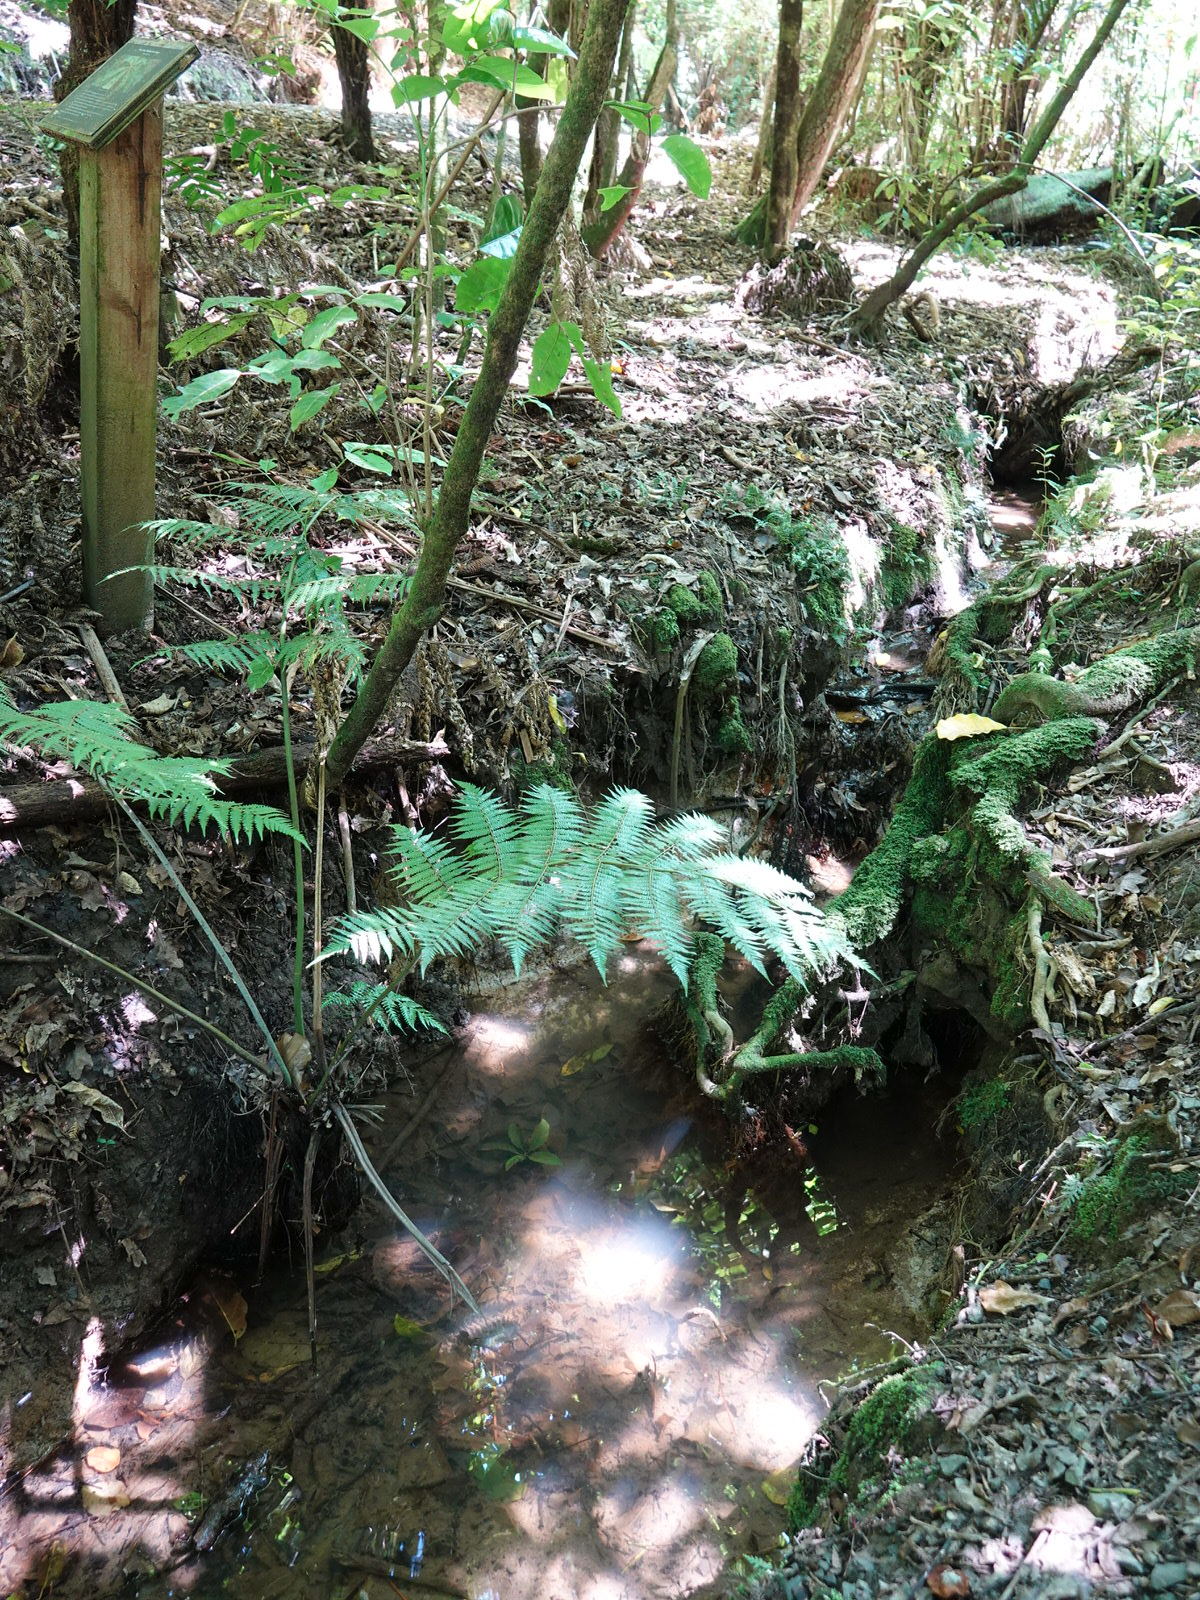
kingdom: Animalia
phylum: Chordata
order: Osmeriformes
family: Galaxiidae
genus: Galaxias
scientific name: Galaxias fasciatus
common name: Banded kokopu
